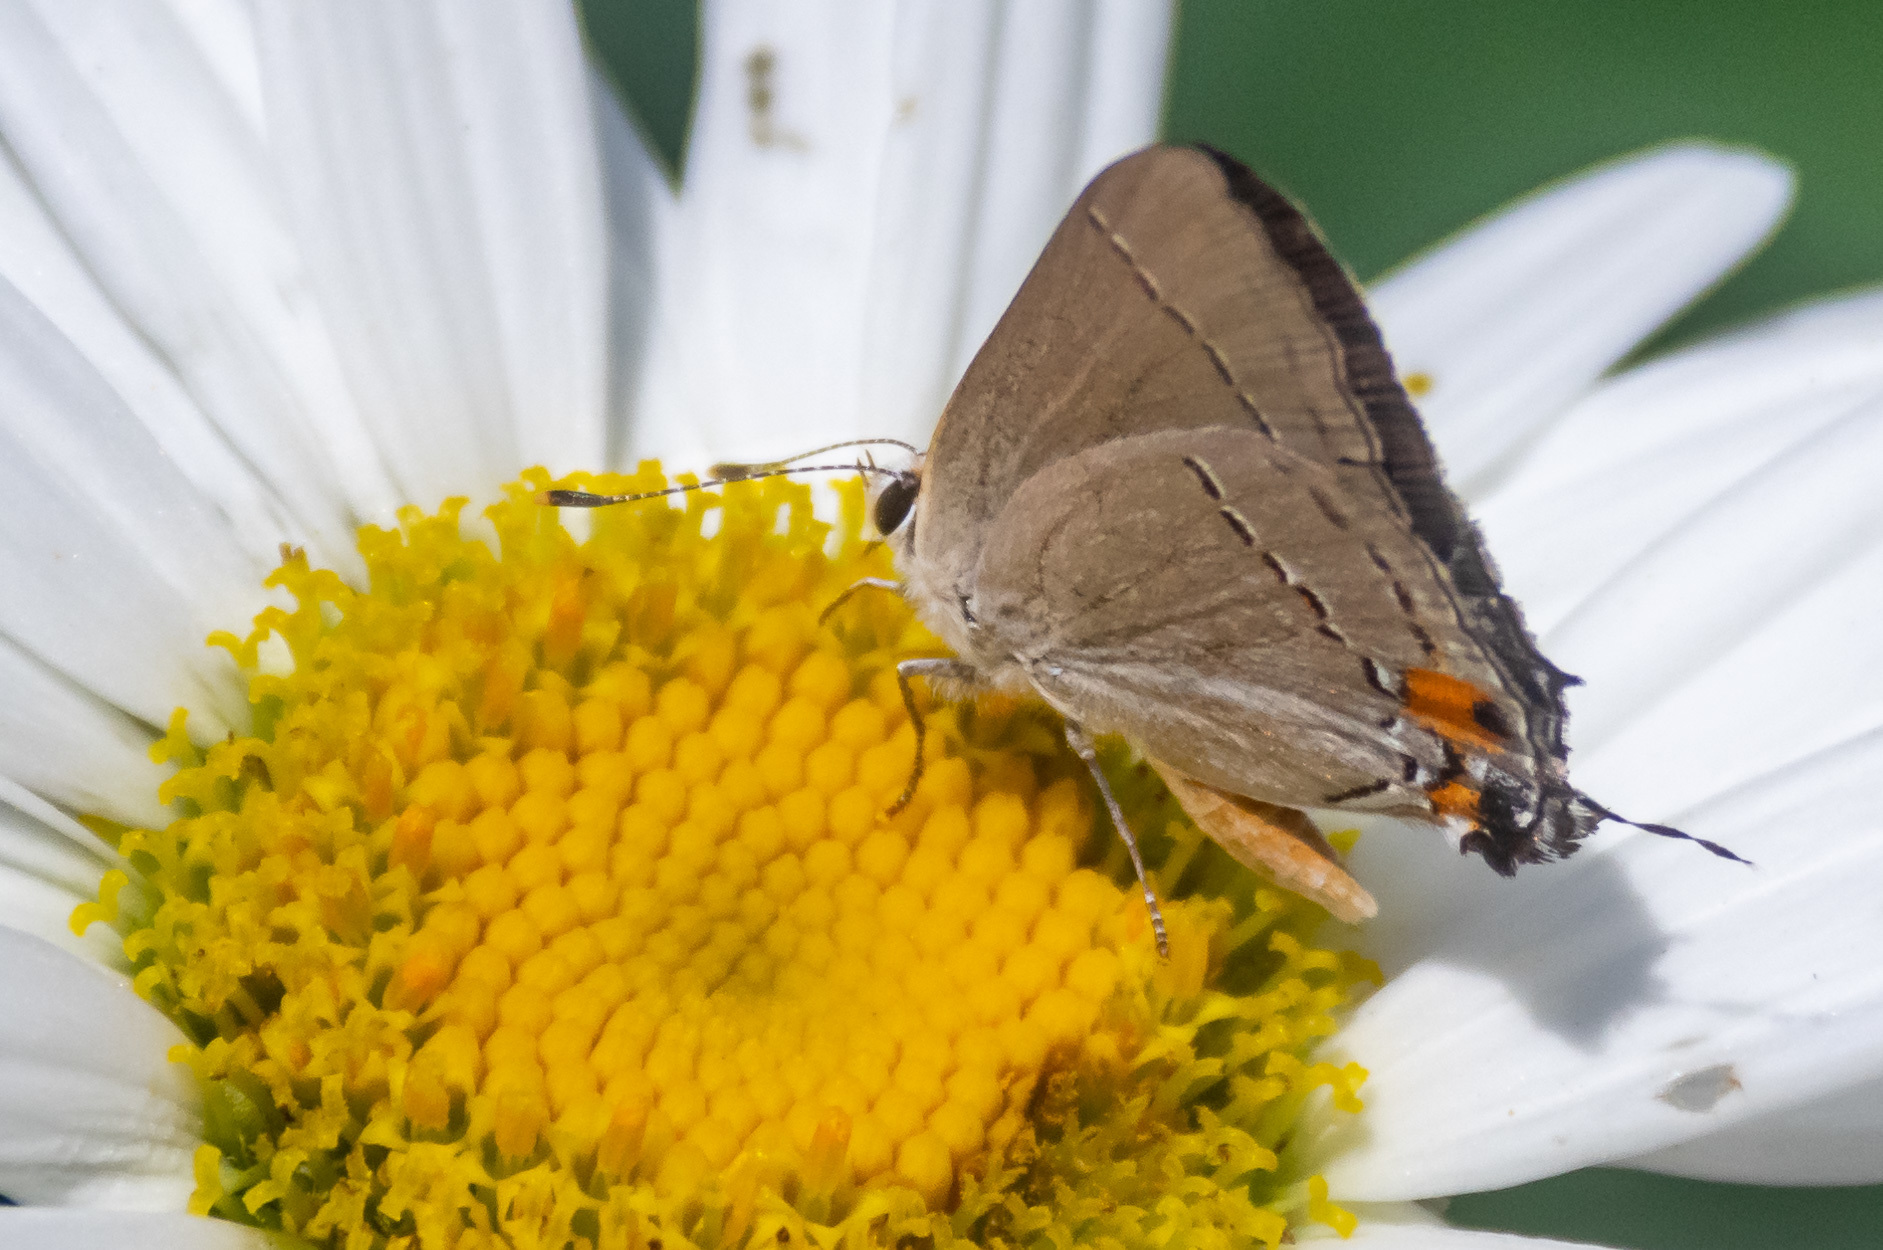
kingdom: Animalia
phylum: Arthropoda
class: Insecta
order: Lepidoptera
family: Lycaenidae
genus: Strymon
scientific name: Strymon melinus
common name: Gray hairstreak
